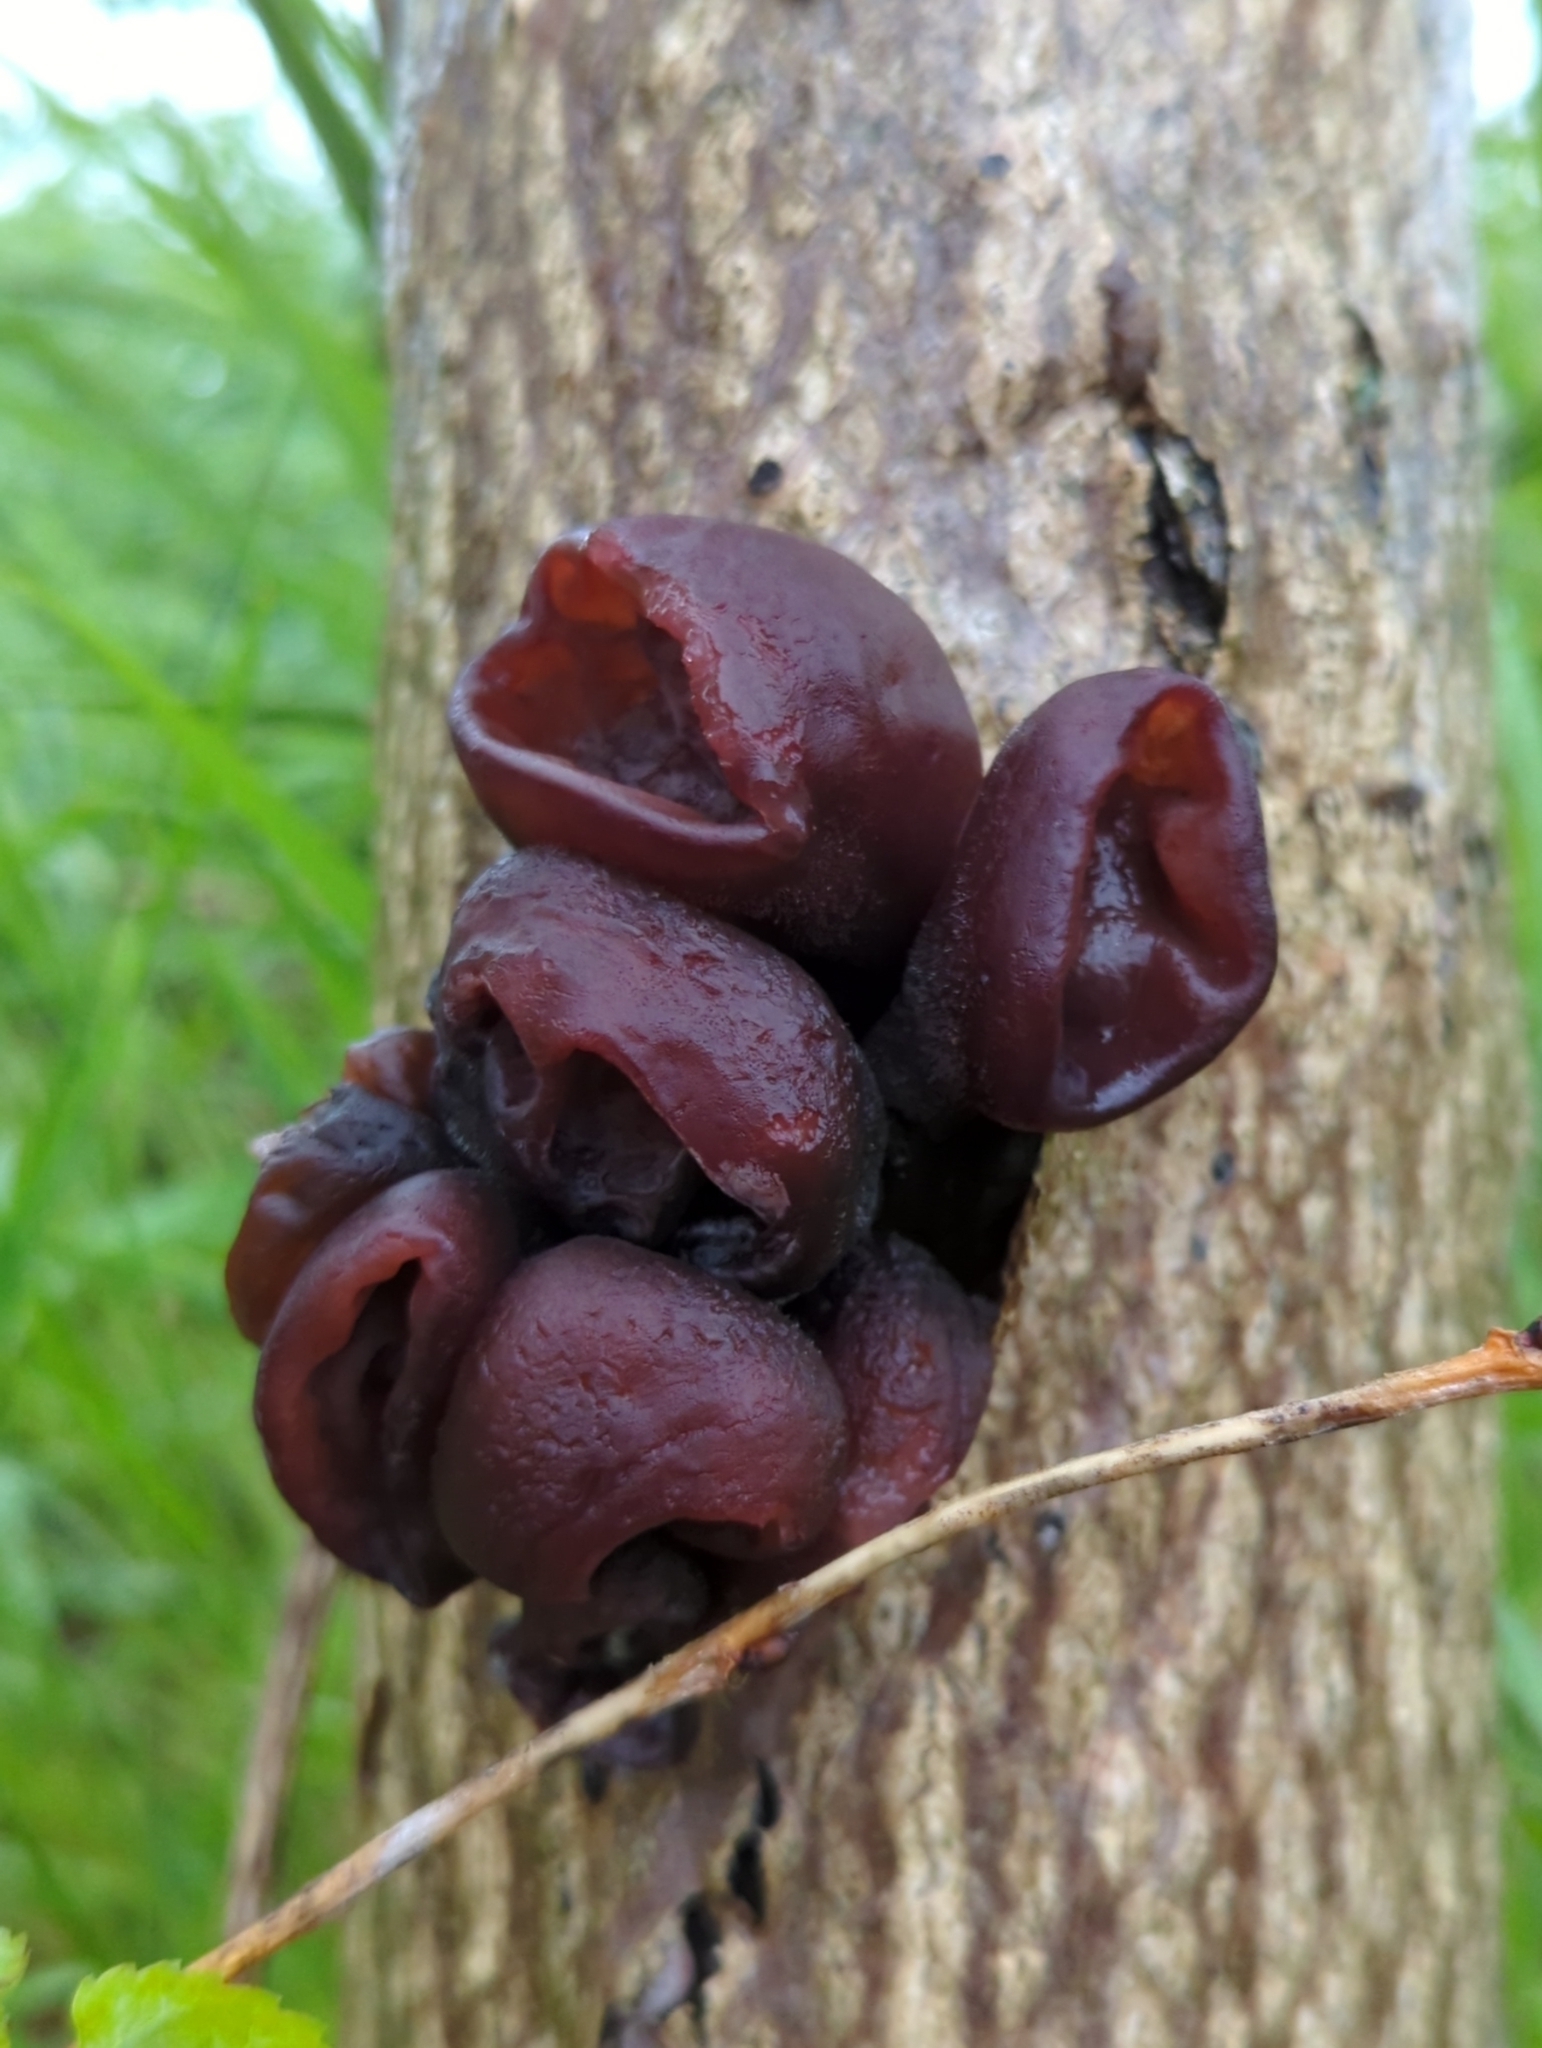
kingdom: Fungi
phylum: Basidiomycota
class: Agaricomycetes
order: Auriculariales
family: Auriculariaceae
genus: Exidia
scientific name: Exidia
